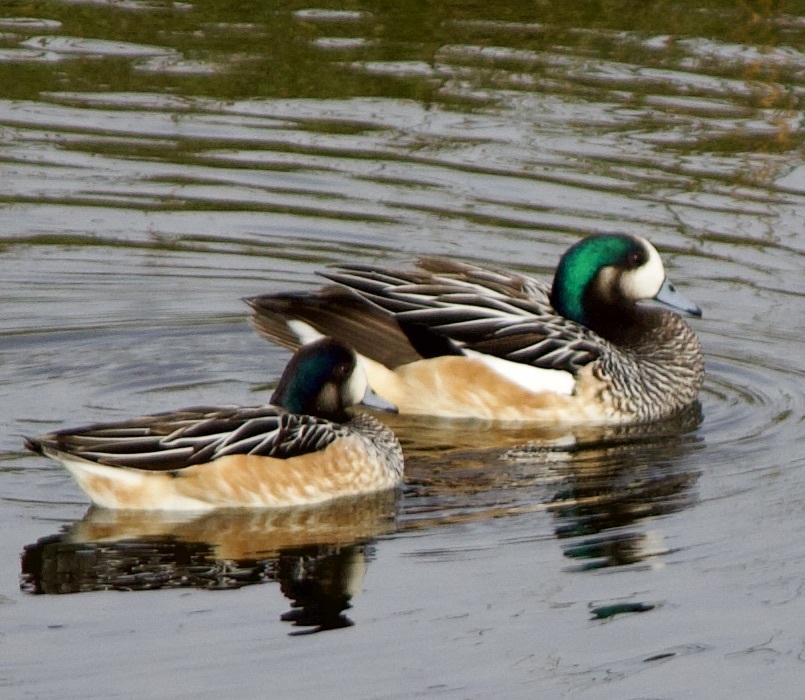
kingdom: Animalia
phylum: Chordata
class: Aves
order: Anseriformes
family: Anatidae
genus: Mareca
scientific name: Mareca sibilatrix
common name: Chiloe wigeon
